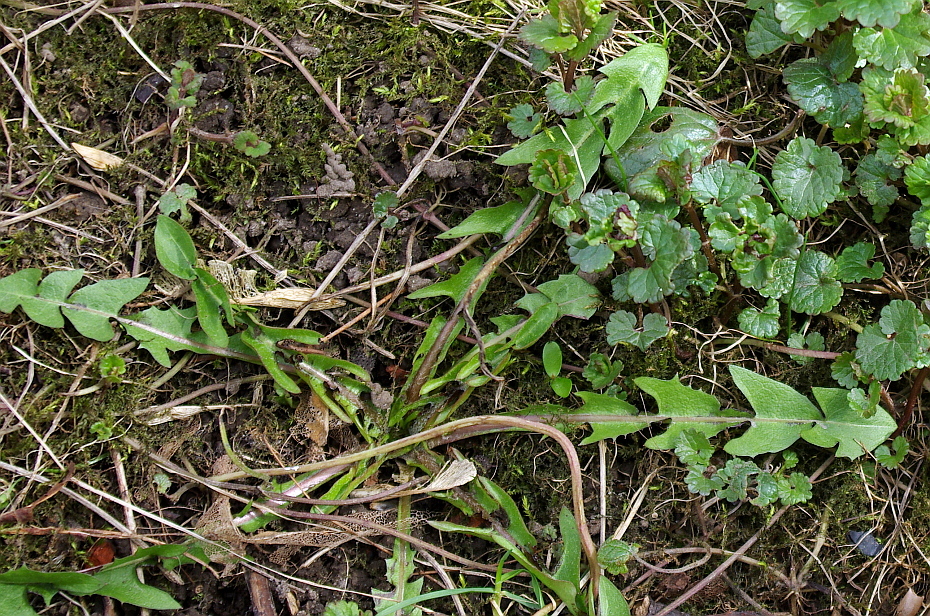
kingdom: Plantae
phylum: Tracheophyta
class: Magnoliopsida
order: Asterales
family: Asteraceae
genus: Taraxacum
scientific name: Taraxacum officinale
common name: Common dandelion
